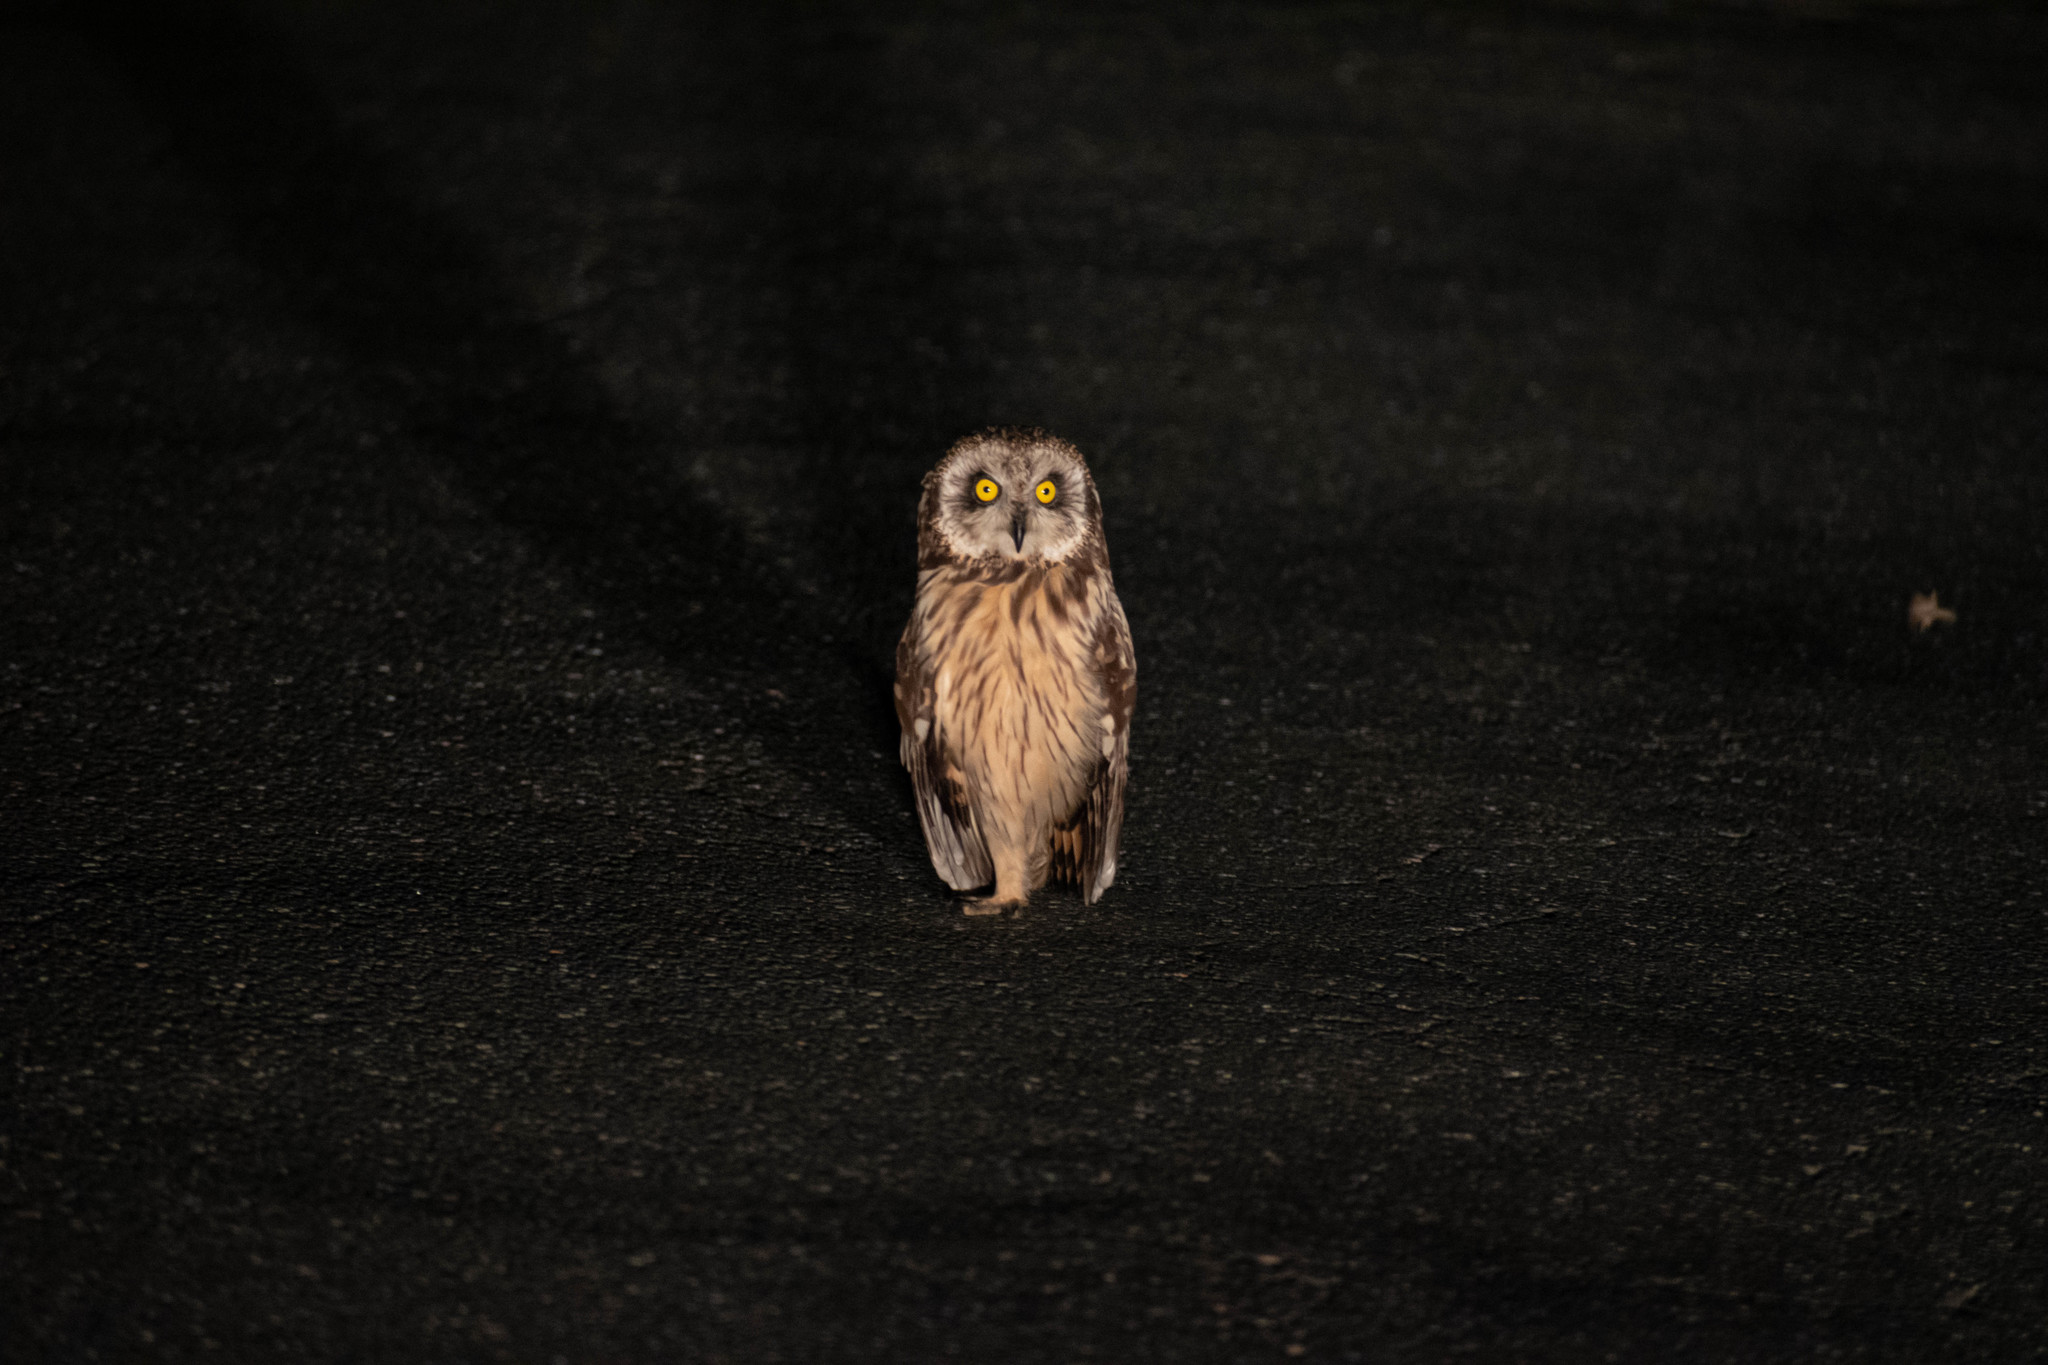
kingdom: Animalia
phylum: Chordata
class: Aves
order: Strigiformes
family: Strigidae
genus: Asio
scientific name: Asio flammeus
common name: Short-eared owl
